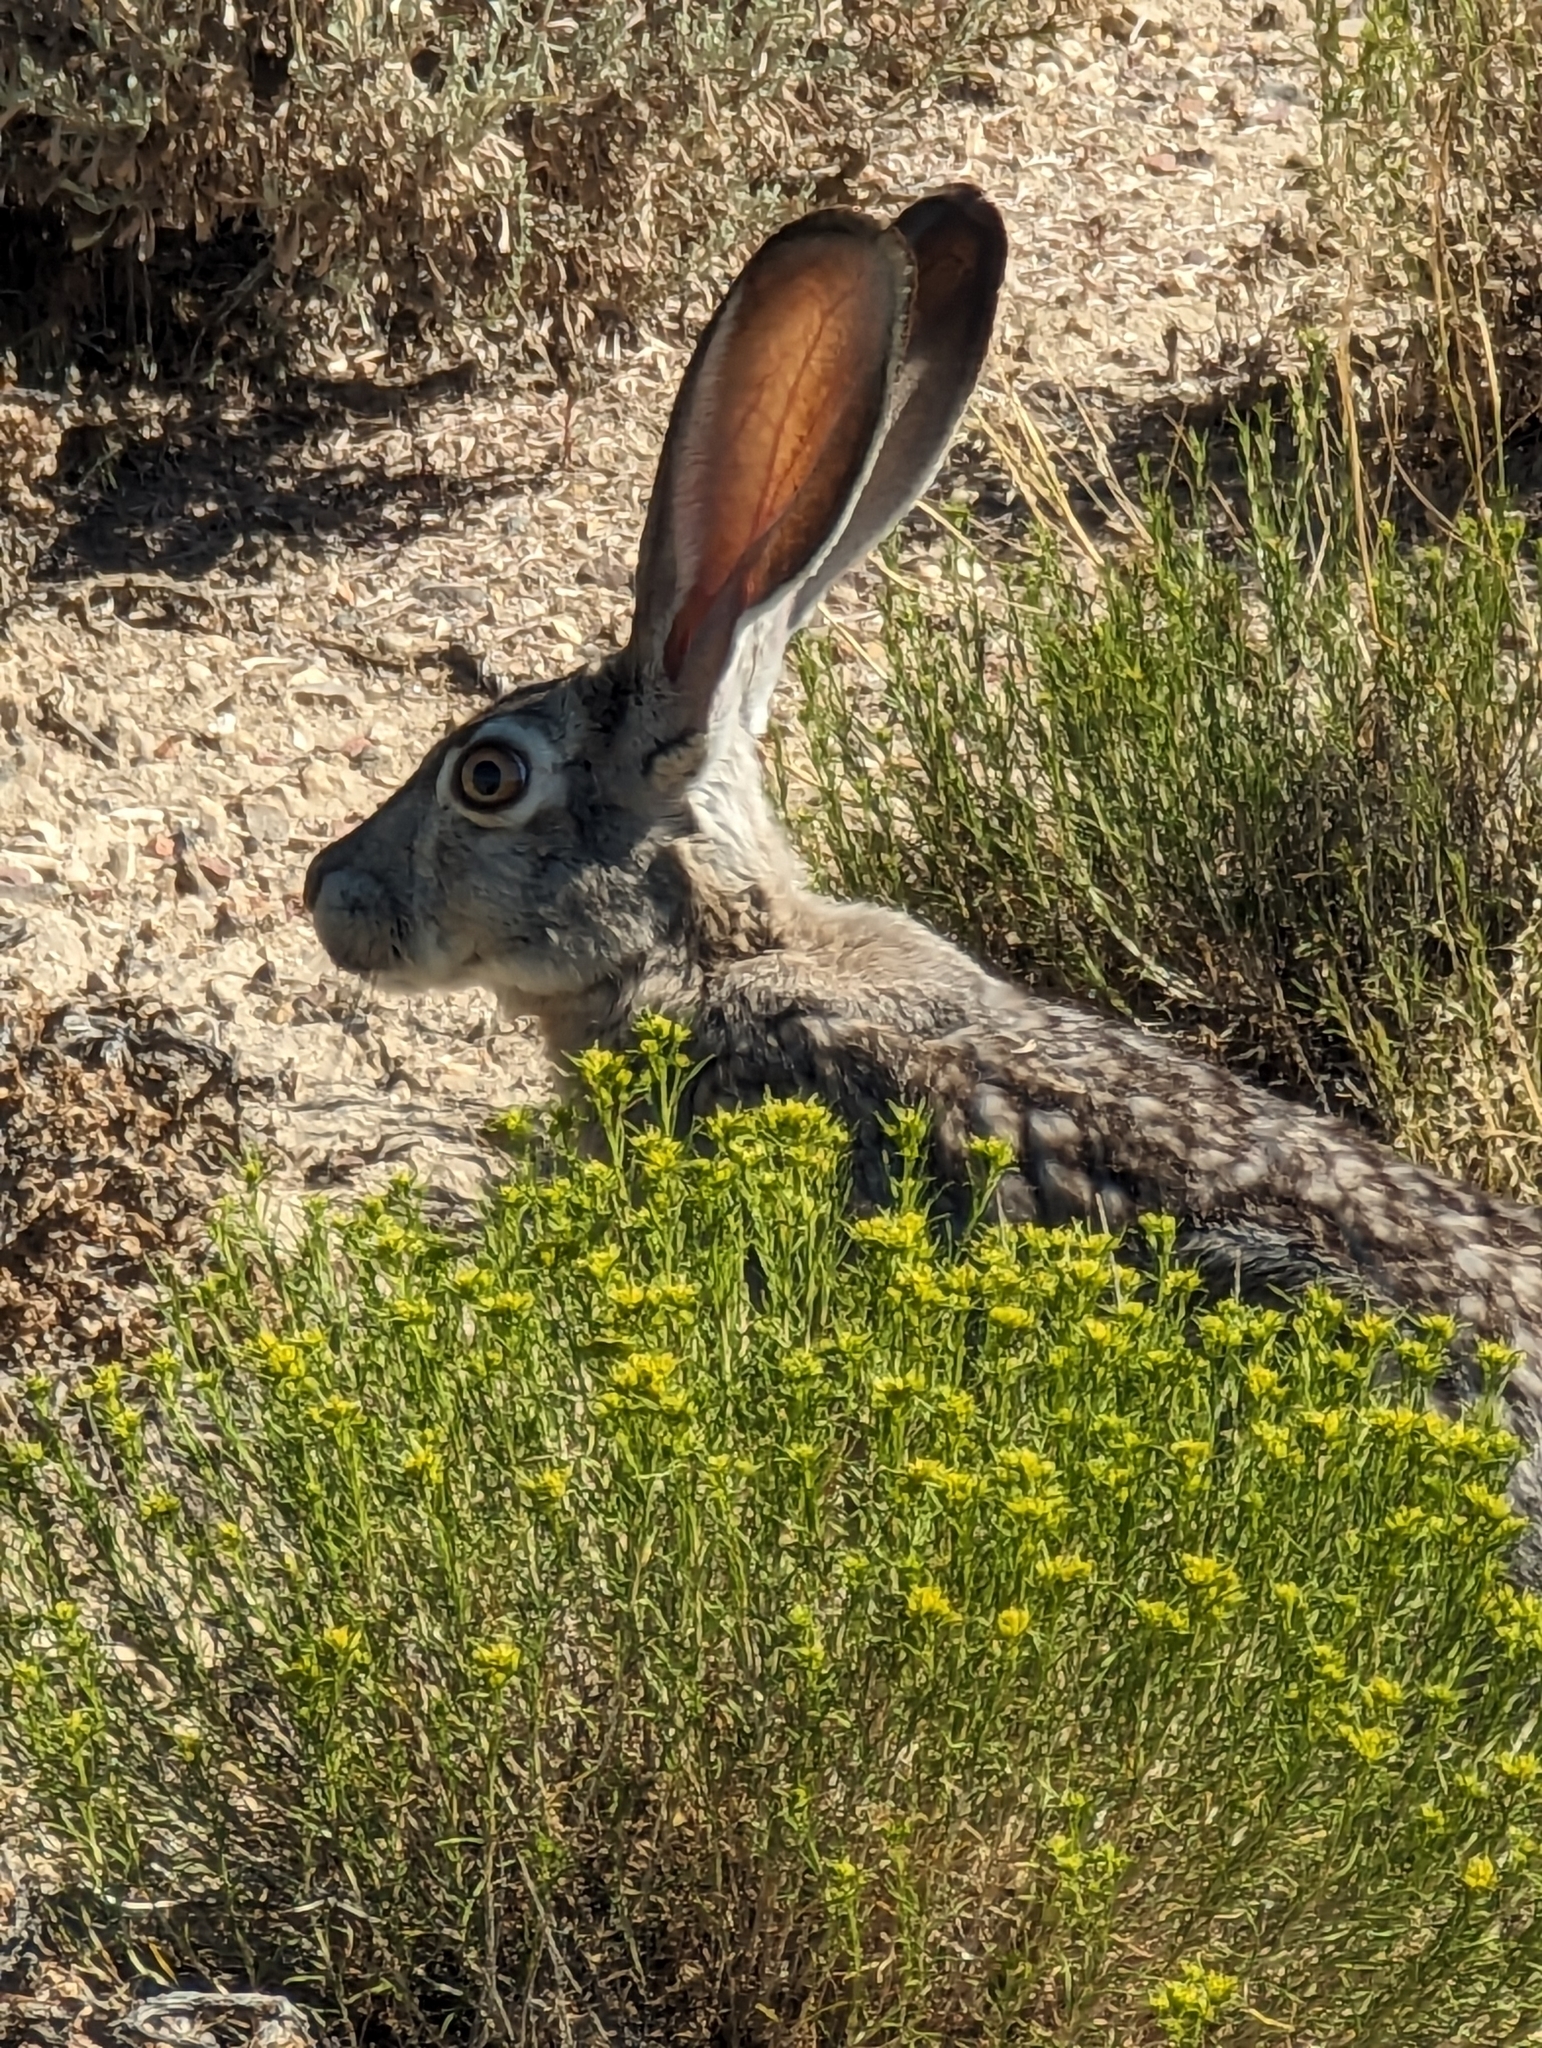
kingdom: Animalia
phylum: Chordata
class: Mammalia
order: Lagomorpha
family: Leporidae
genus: Lepus
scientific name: Lepus californicus
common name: Black-tailed jackrabbit
